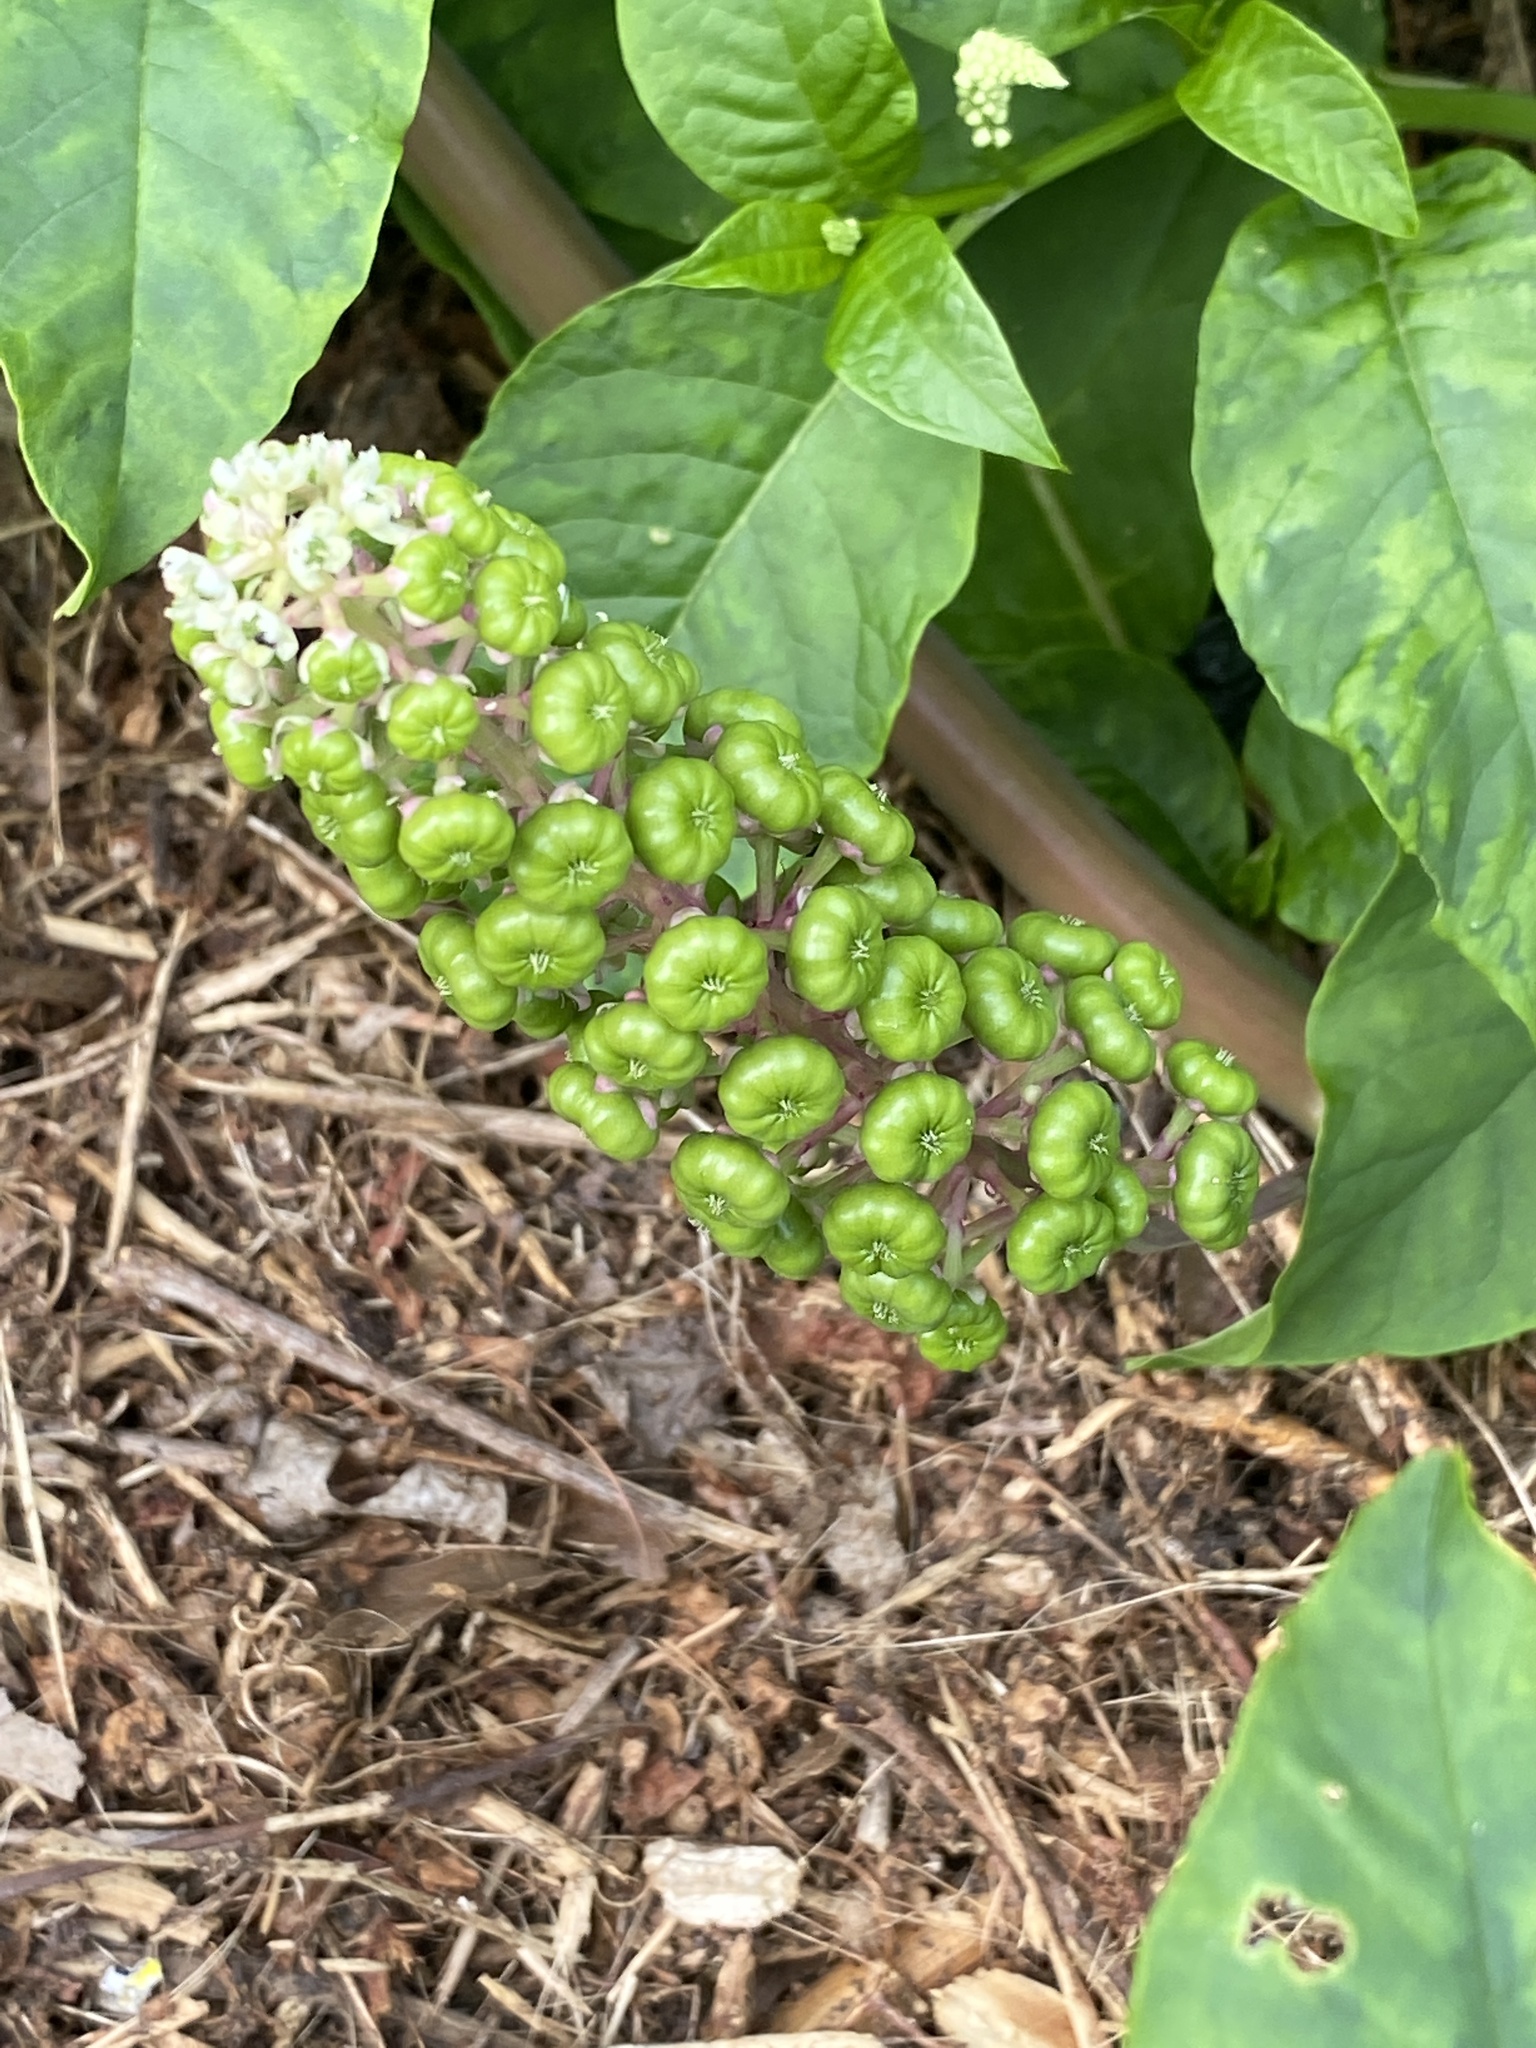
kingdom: Plantae
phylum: Tracheophyta
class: Magnoliopsida
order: Caryophyllales
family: Phytolaccaceae
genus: Phytolacca
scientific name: Phytolacca americana
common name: American pokeweed
